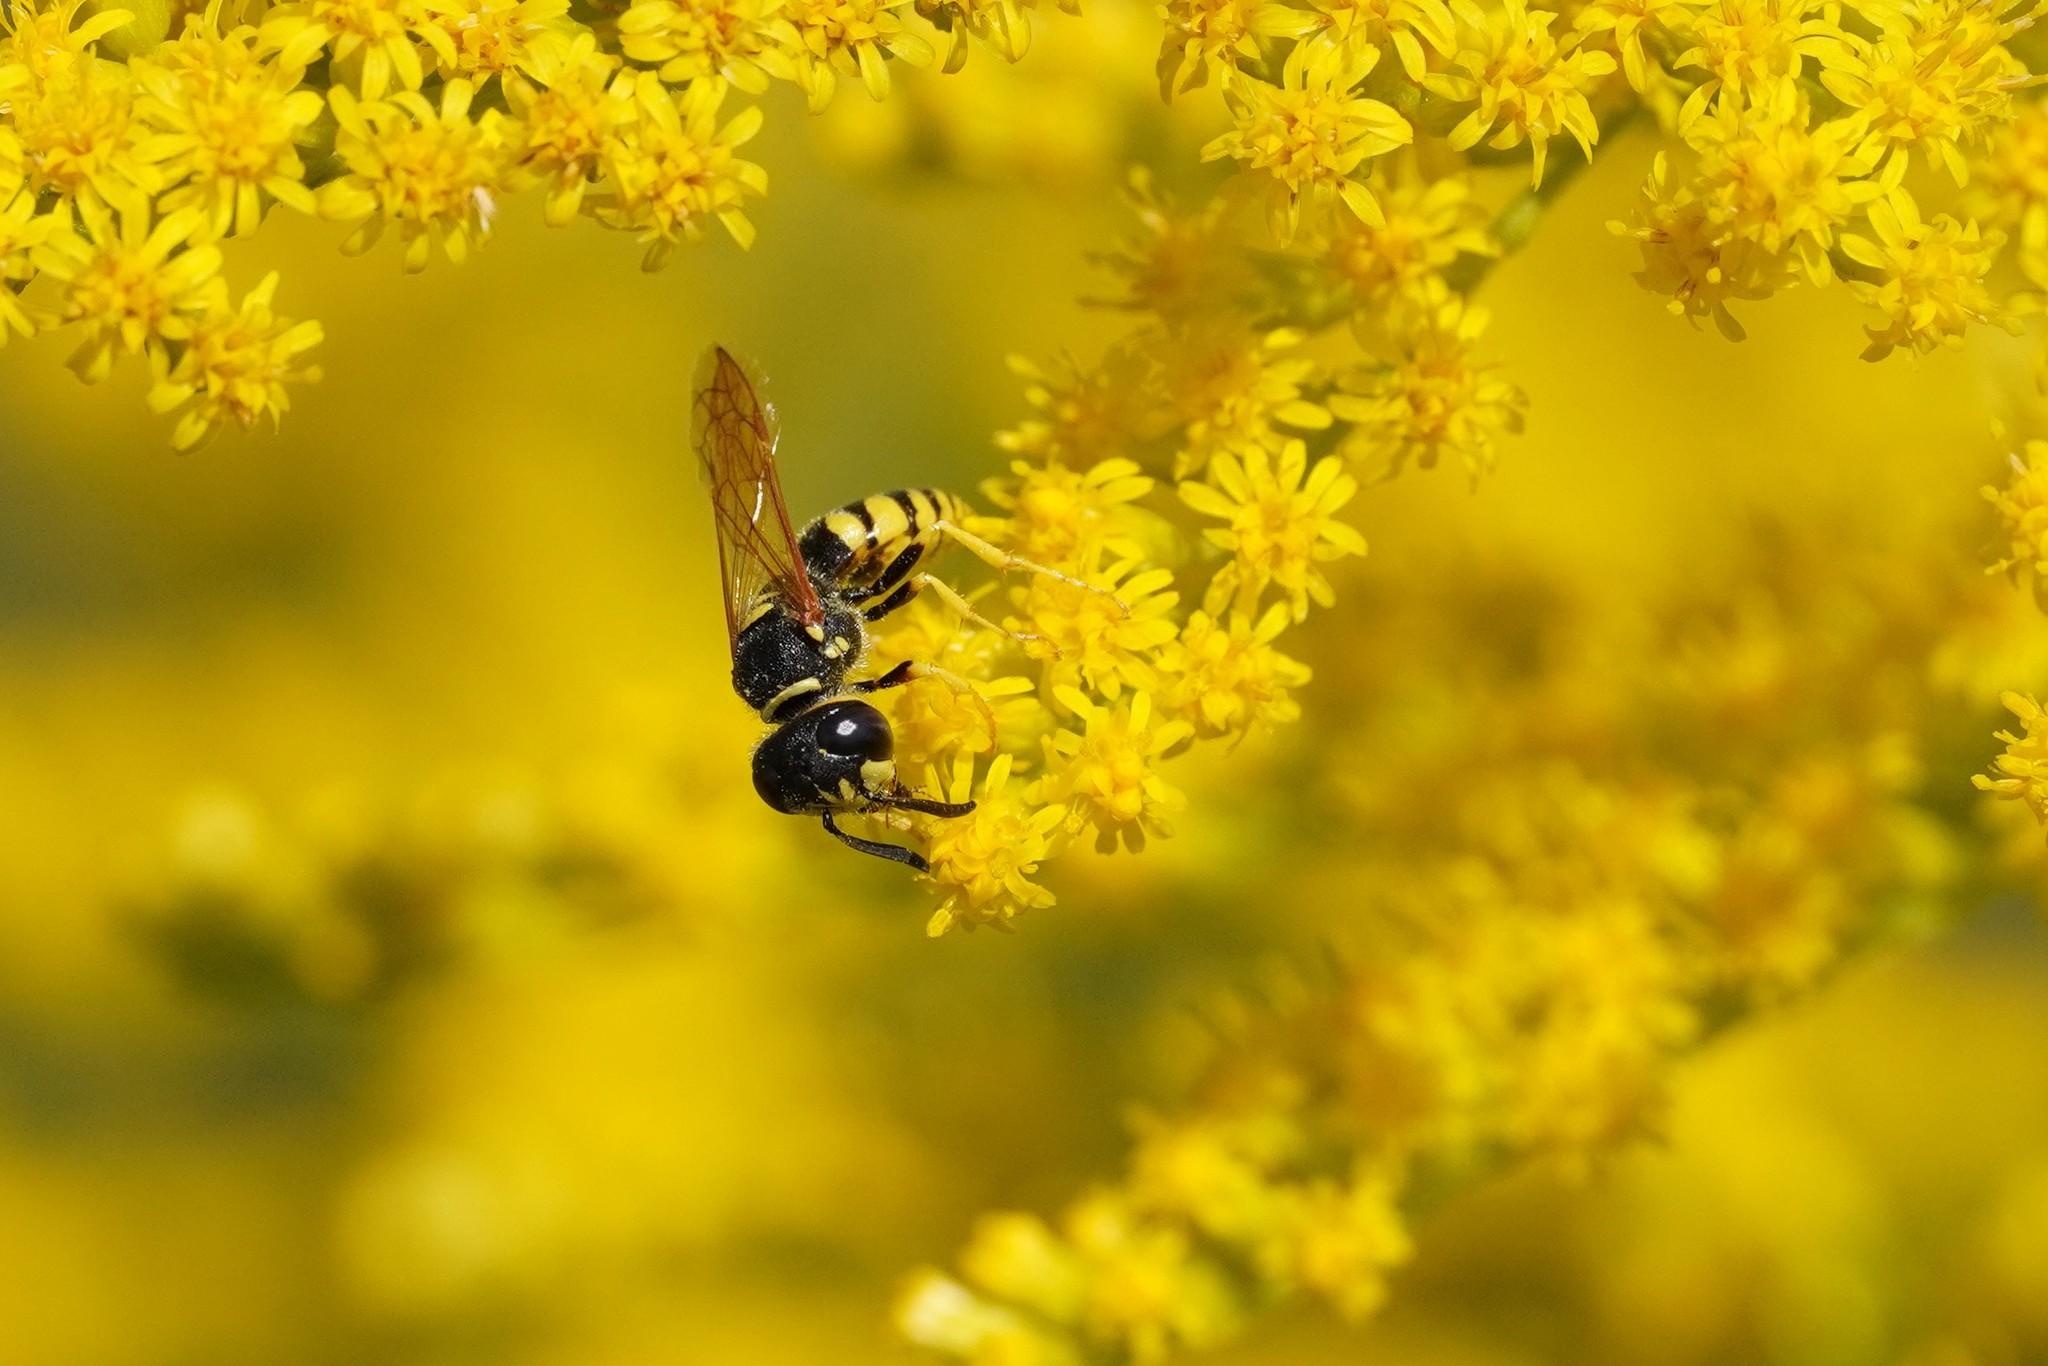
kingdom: Animalia
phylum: Arthropoda
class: Insecta
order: Hymenoptera
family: Crabronidae
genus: Philanthus
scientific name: Philanthus triangulum
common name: Bee wolf
